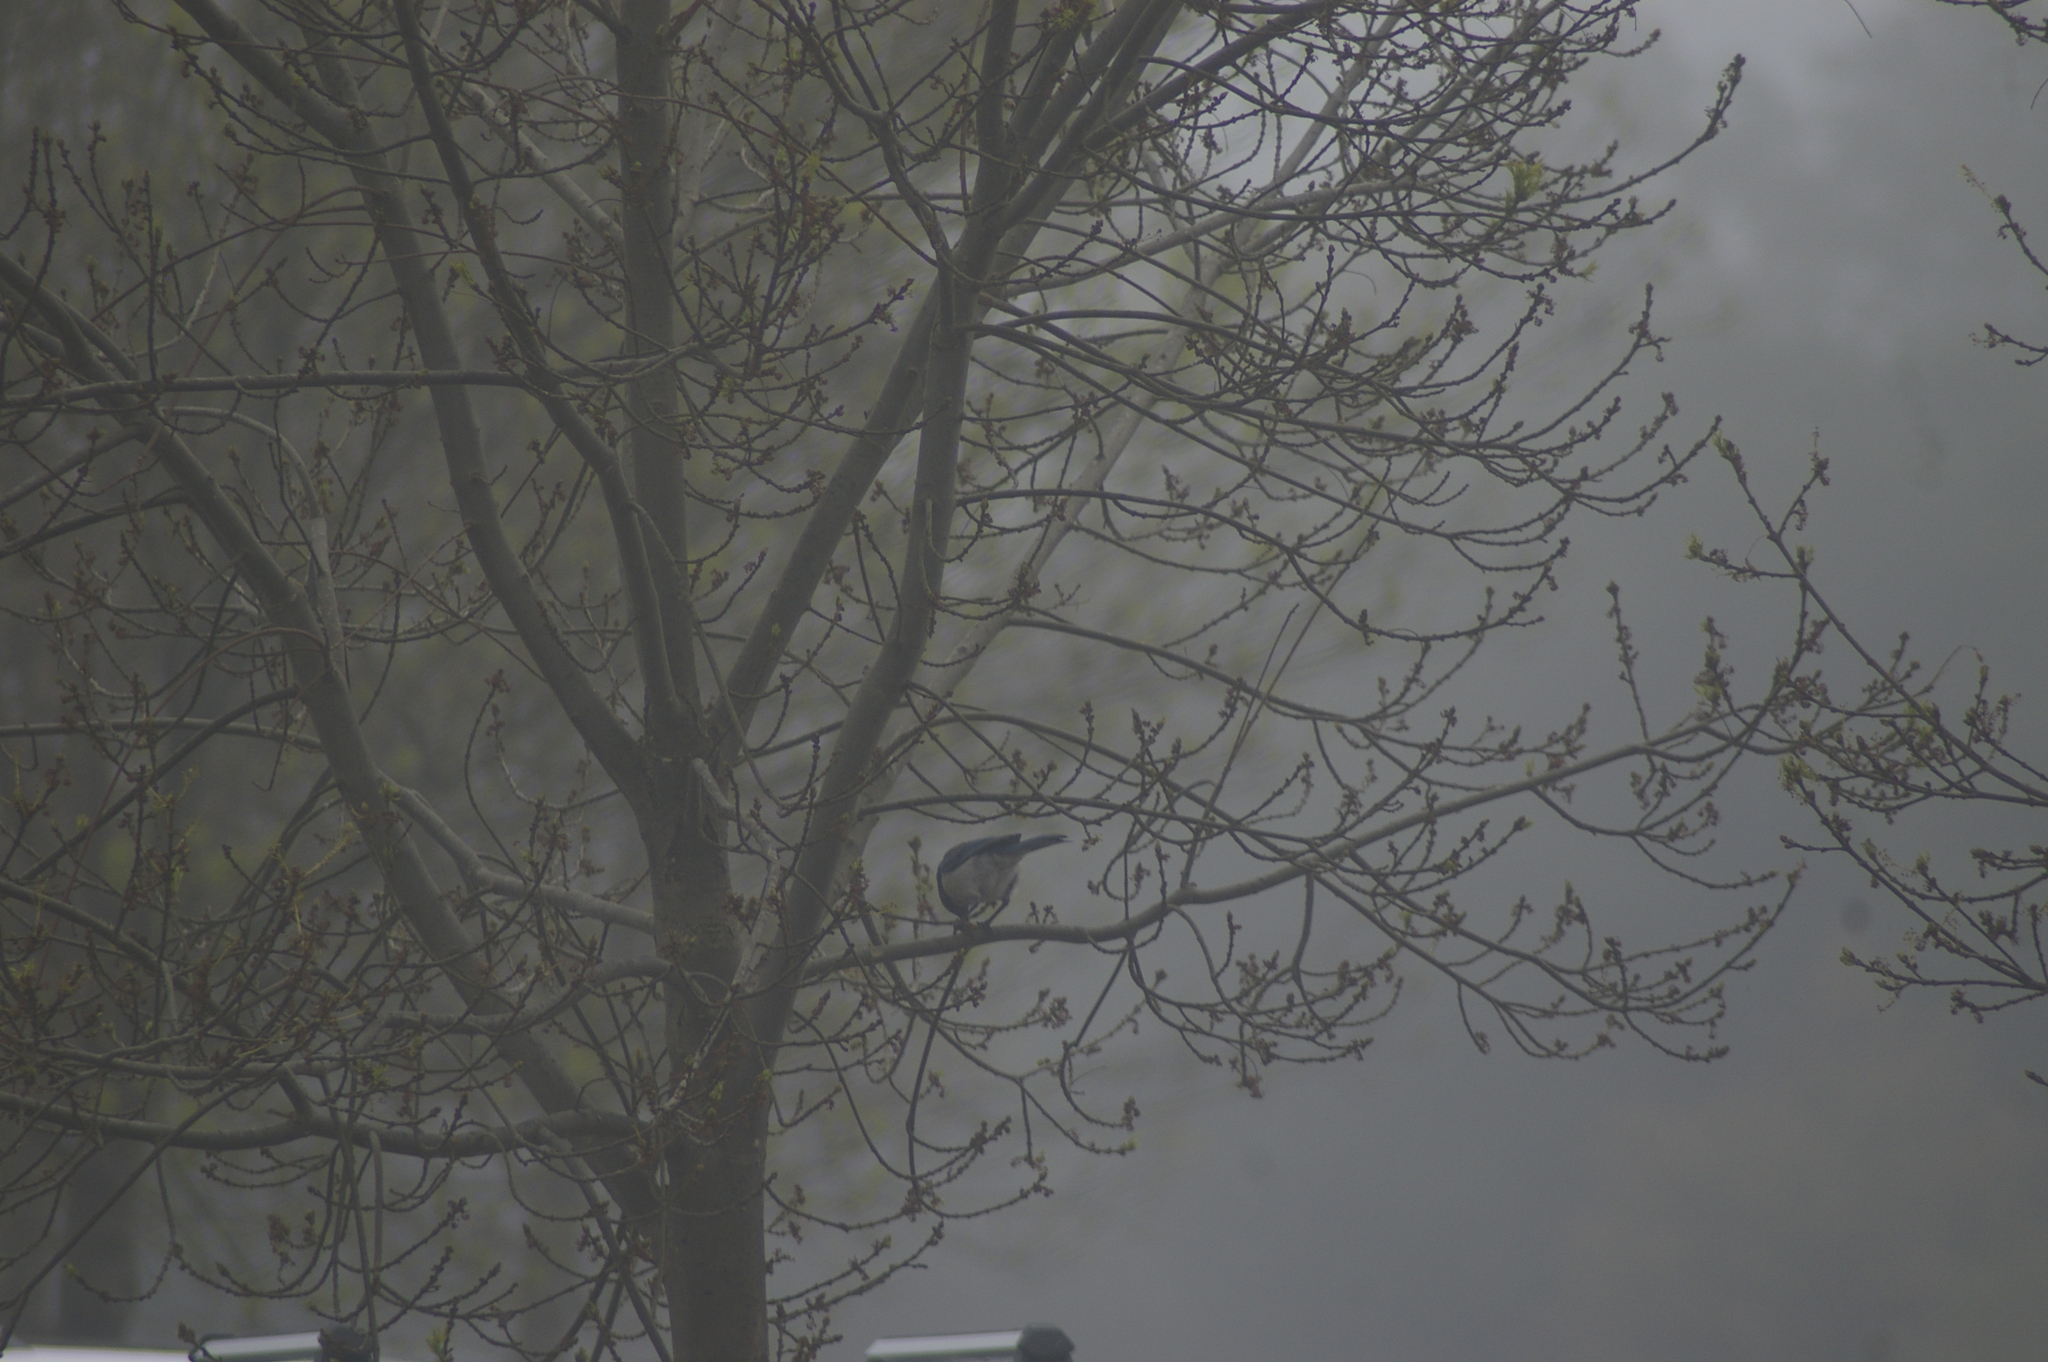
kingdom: Animalia
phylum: Chordata
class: Aves
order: Passeriformes
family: Corvidae
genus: Aphelocoma
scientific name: Aphelocoma californica
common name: California scrub-jay
